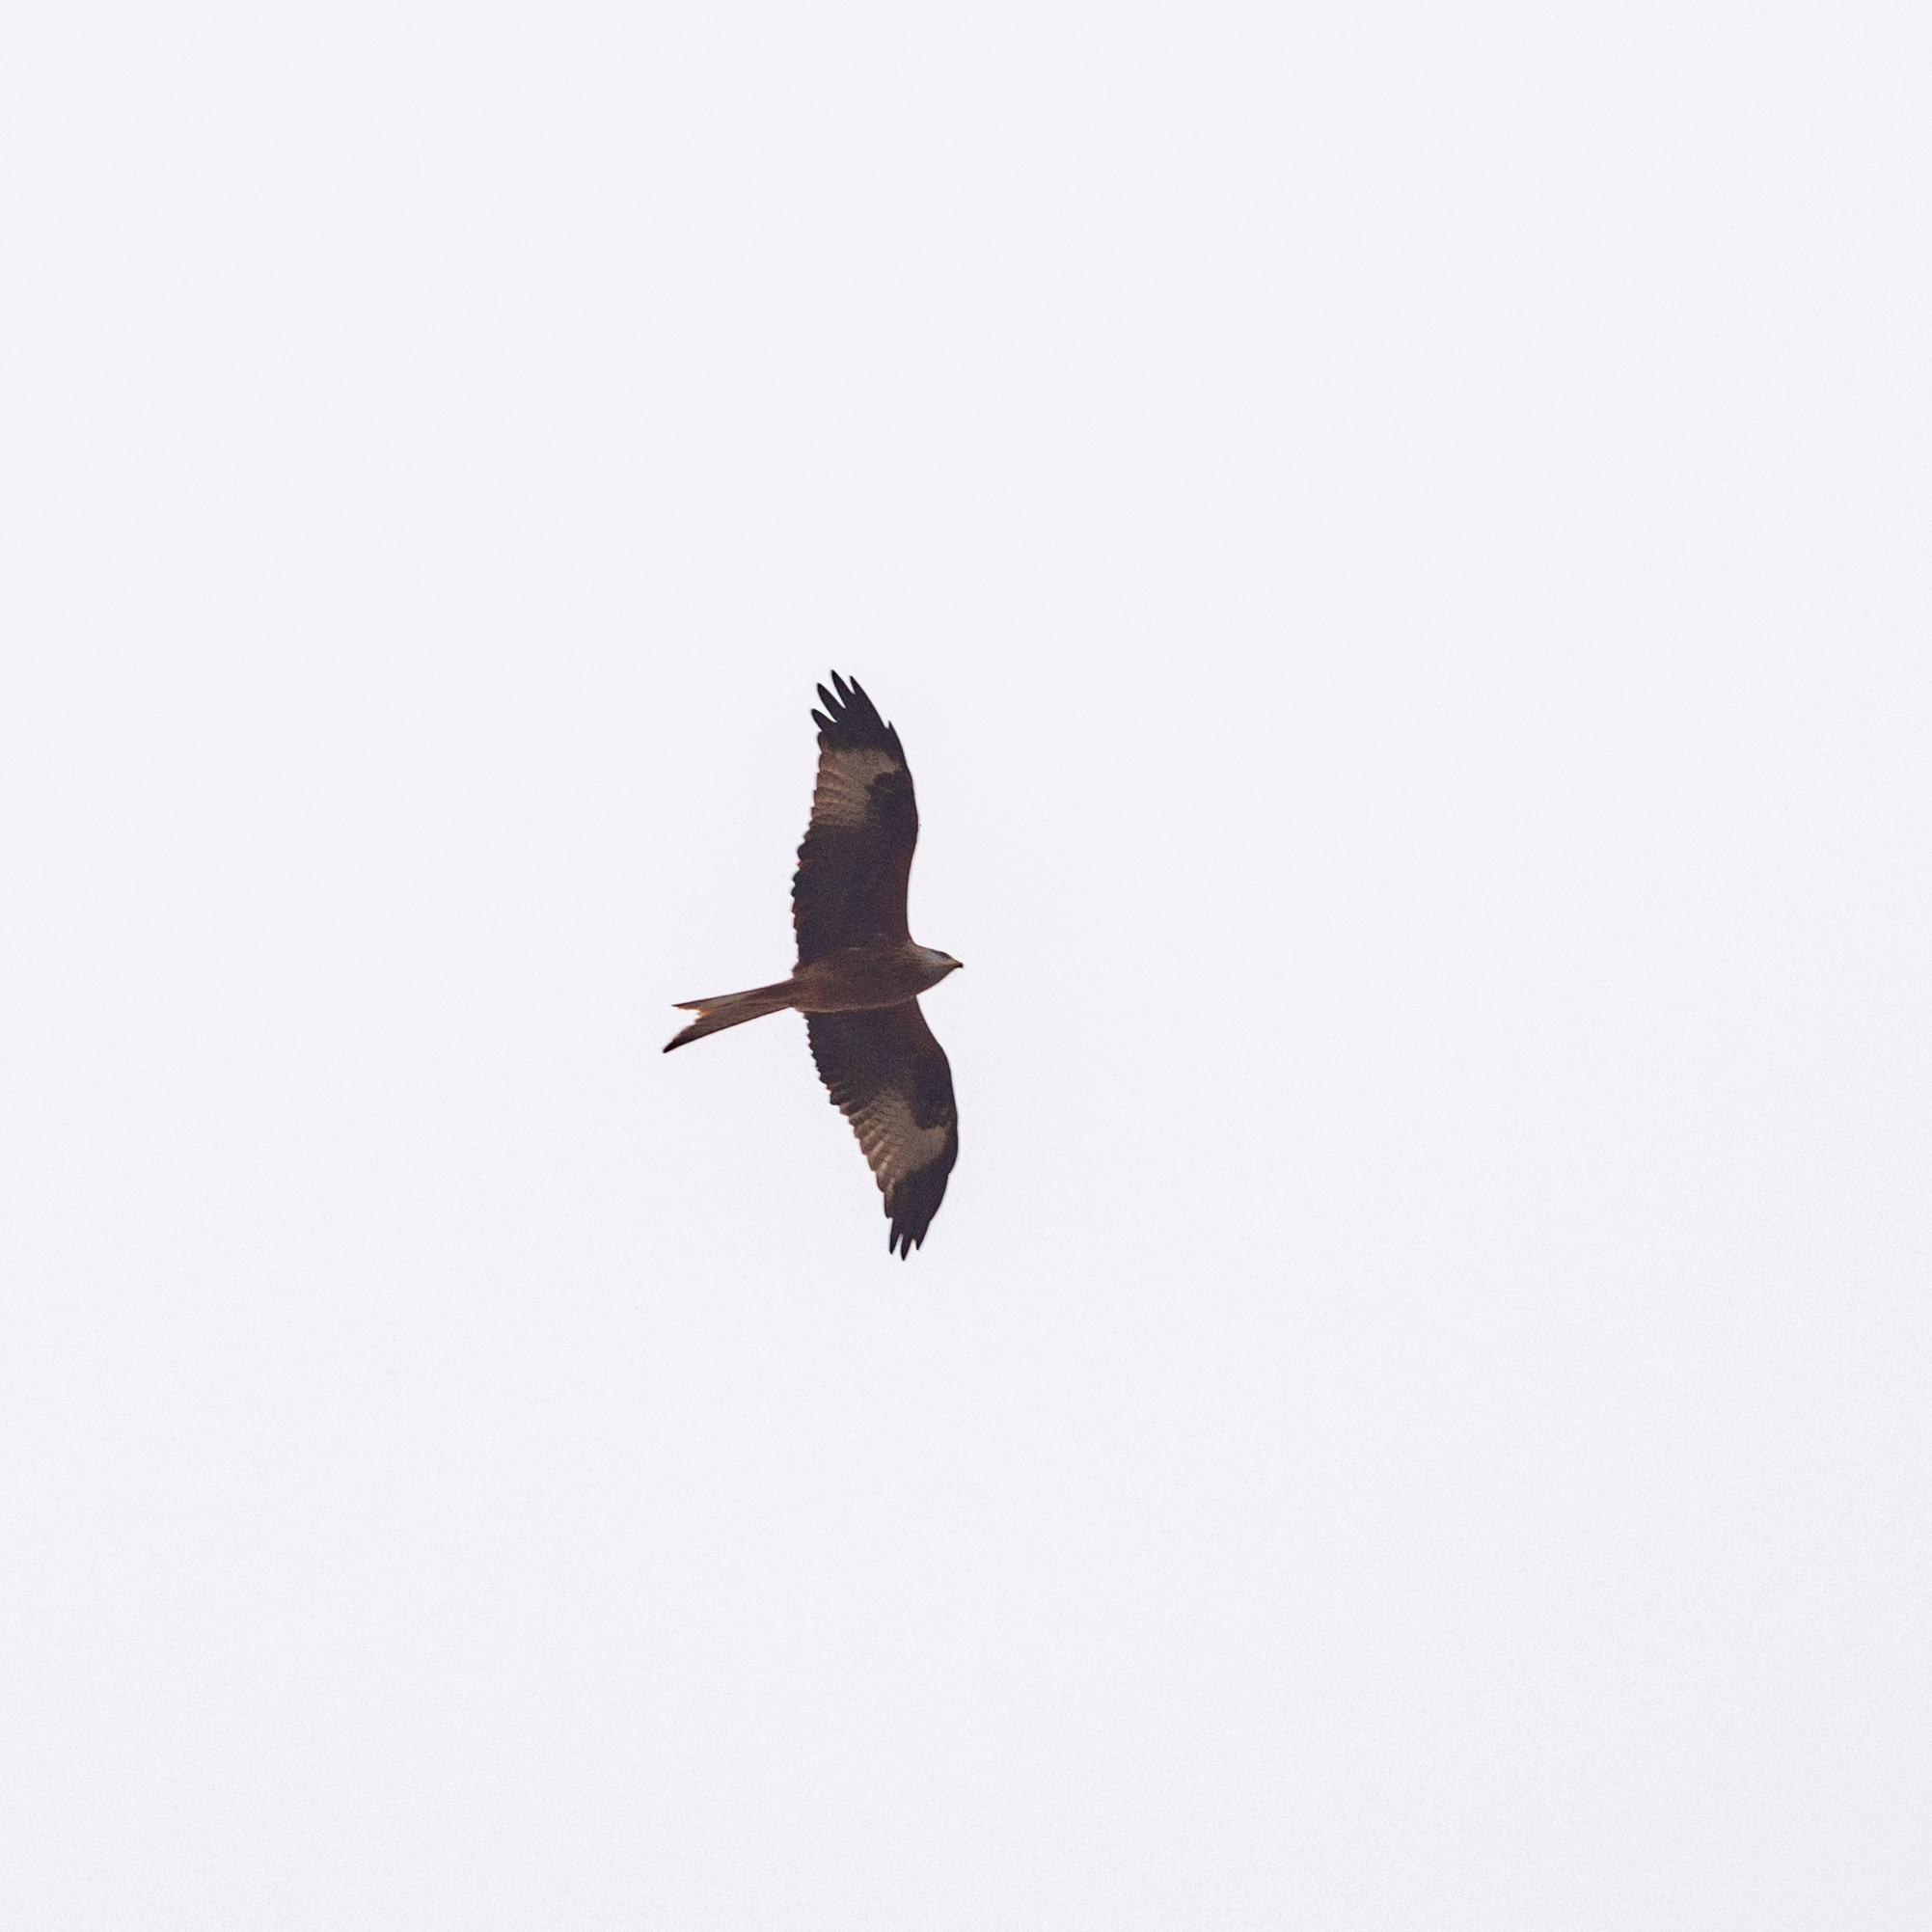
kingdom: Animalia
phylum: Chordata
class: Aves
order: Accipitriformes
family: Accipitridae
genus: Milvus
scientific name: Milvus milvus
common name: Red kite
